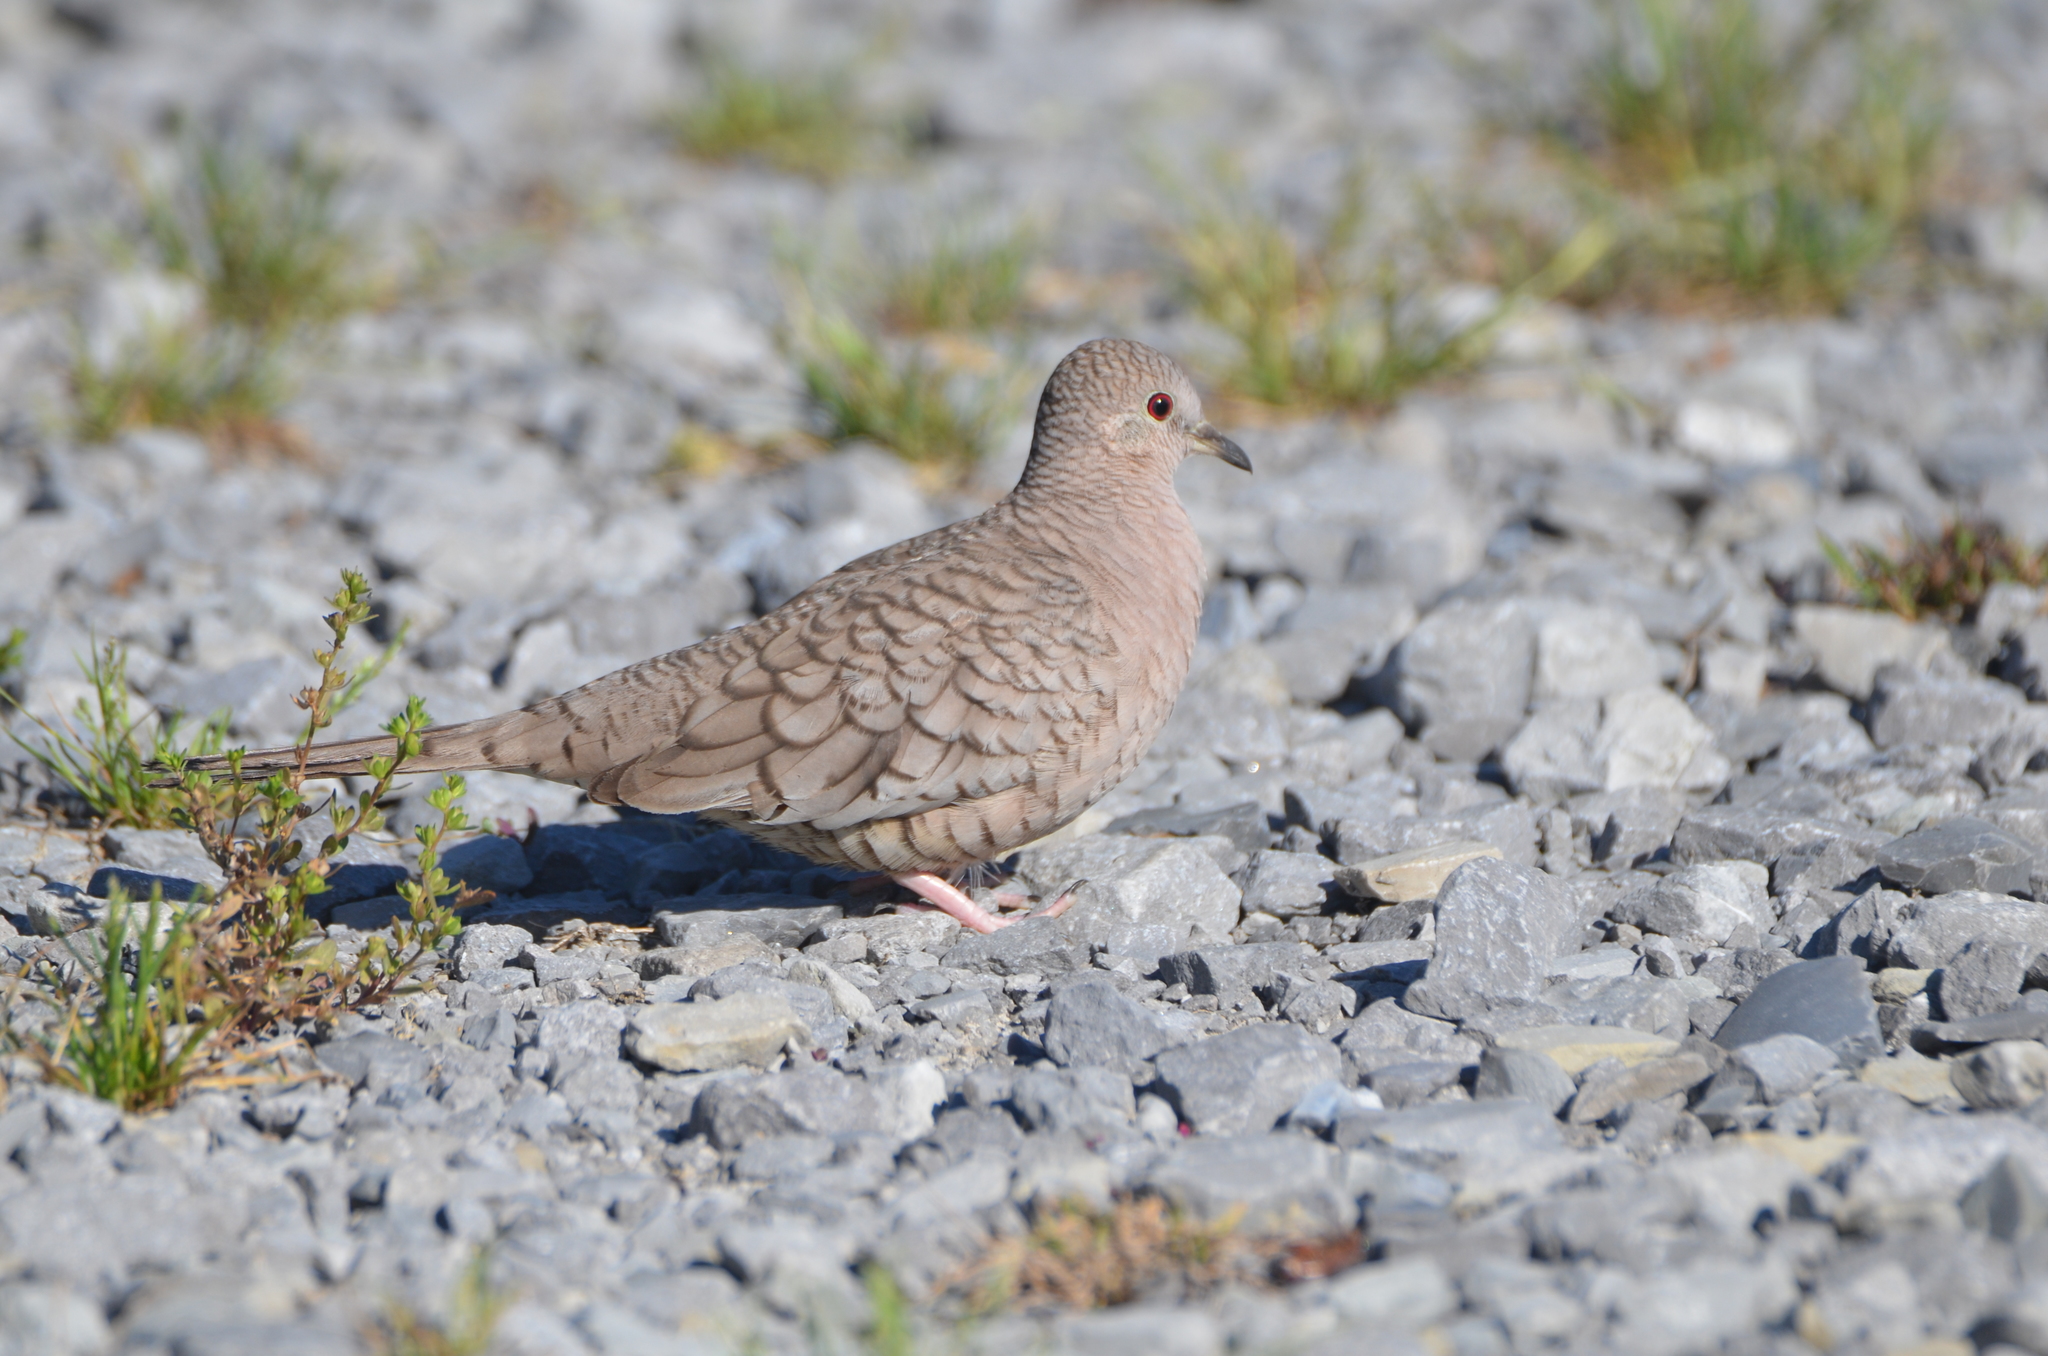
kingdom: Animalia
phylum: Chordata
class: Aves
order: Columbiformes
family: Columbidae
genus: Columbina
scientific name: Columbina inca
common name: Inca dove
